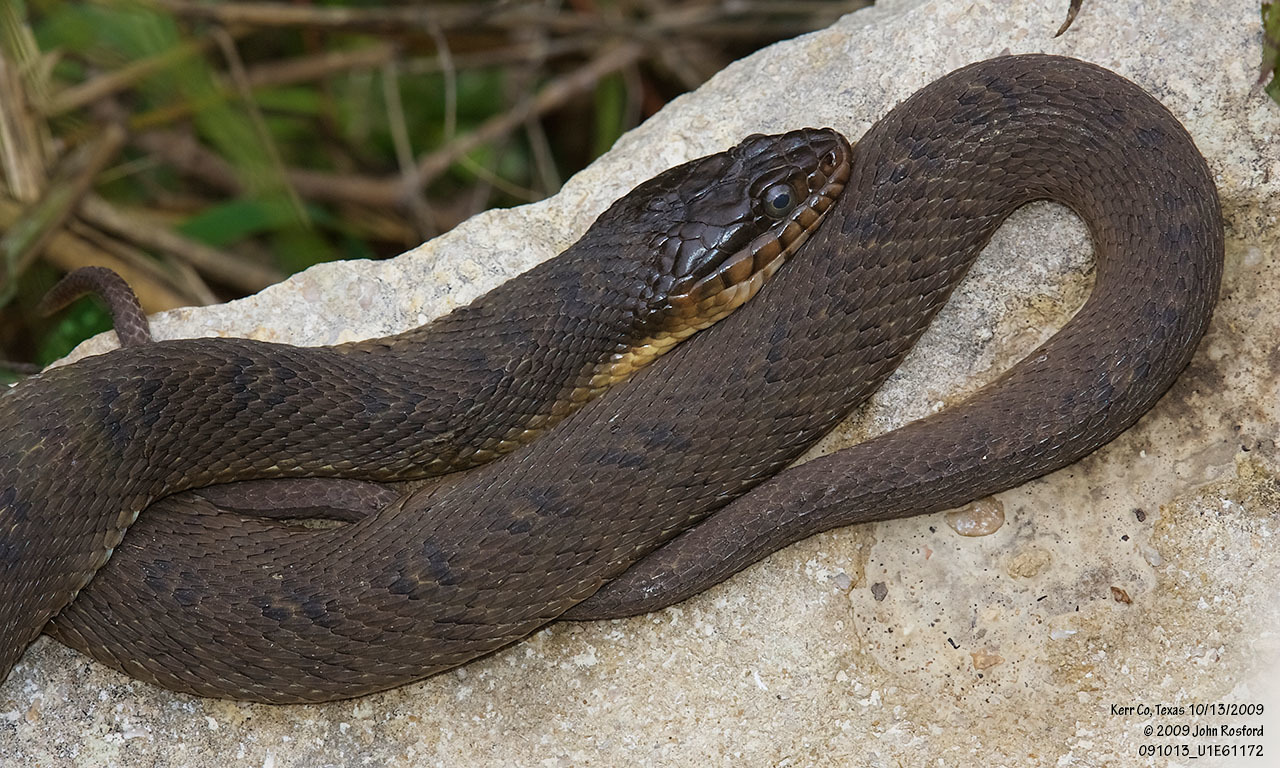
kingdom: Animalia
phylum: Chordata
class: Squamata
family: Colubridae
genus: Nerodia
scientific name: Nerodia erythrogaster
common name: Plainbelly water snake
